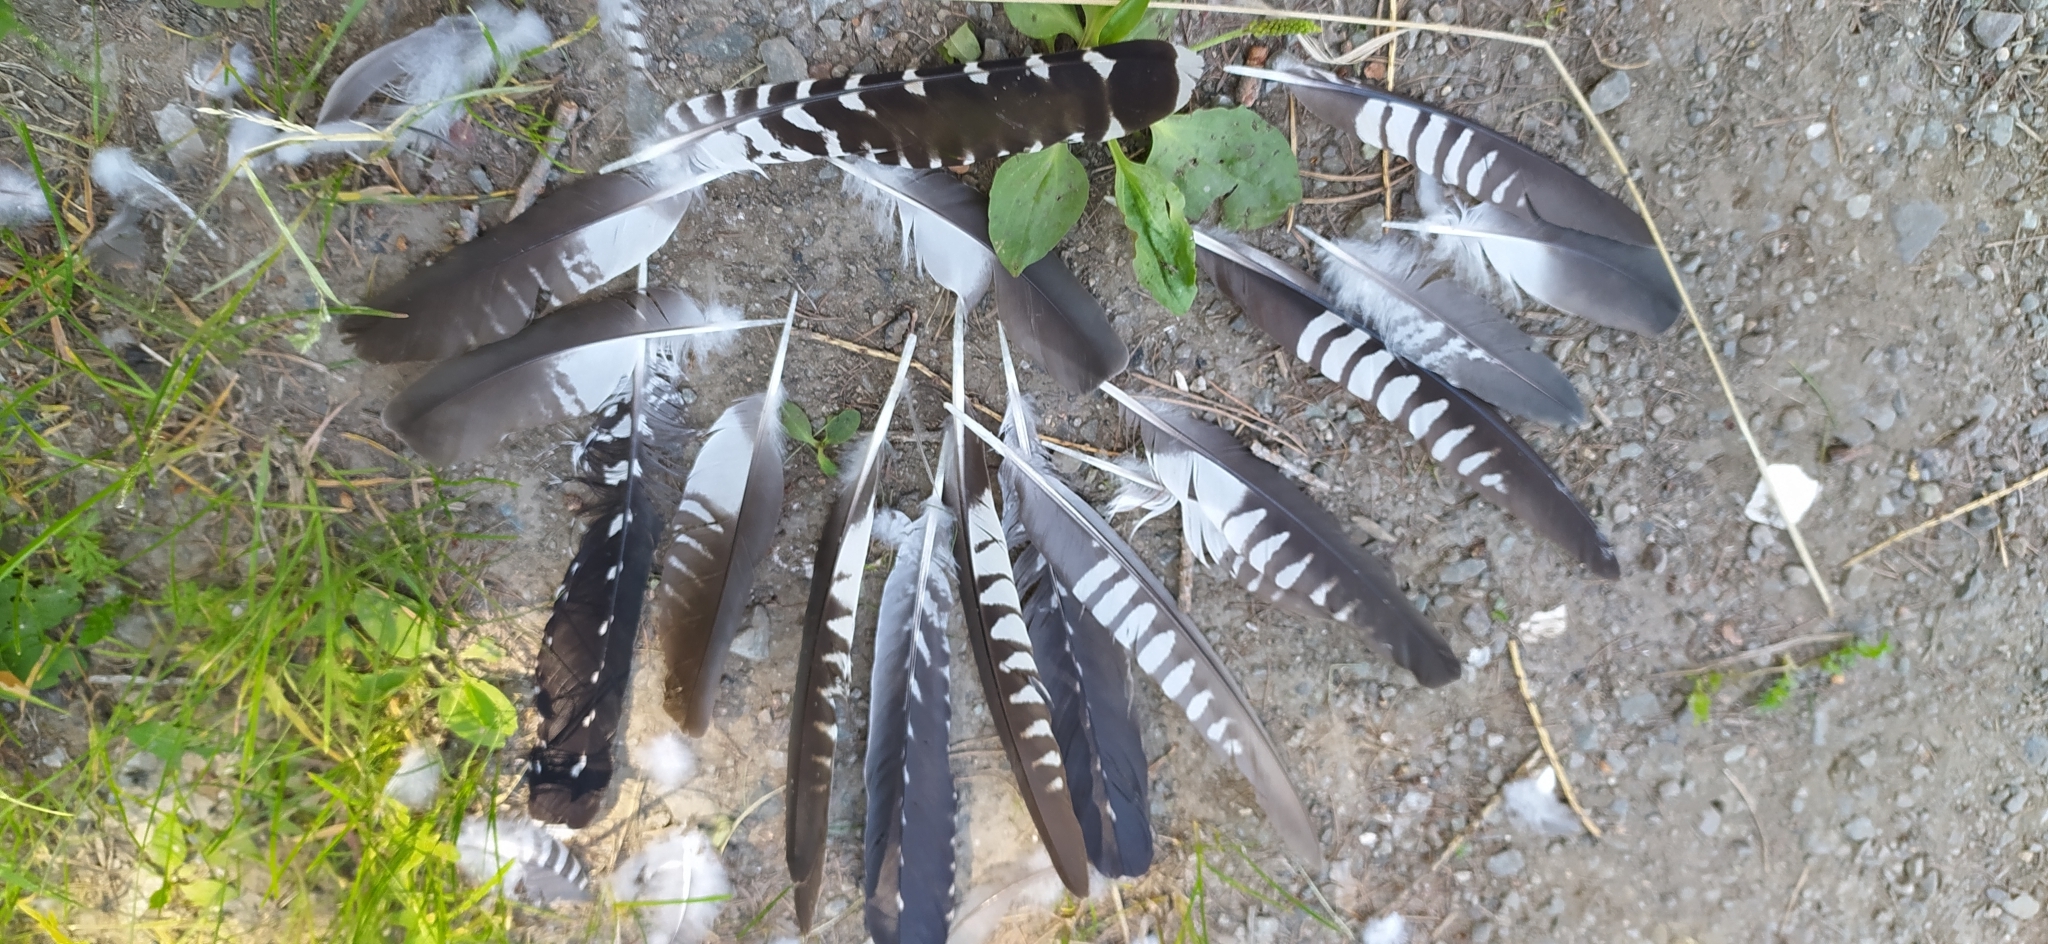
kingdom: Animalia
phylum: Chordata
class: Aves
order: Cuculiformes
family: Cuculidae
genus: Cuculus
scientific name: Cuculus canorus
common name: Common cuckoo
